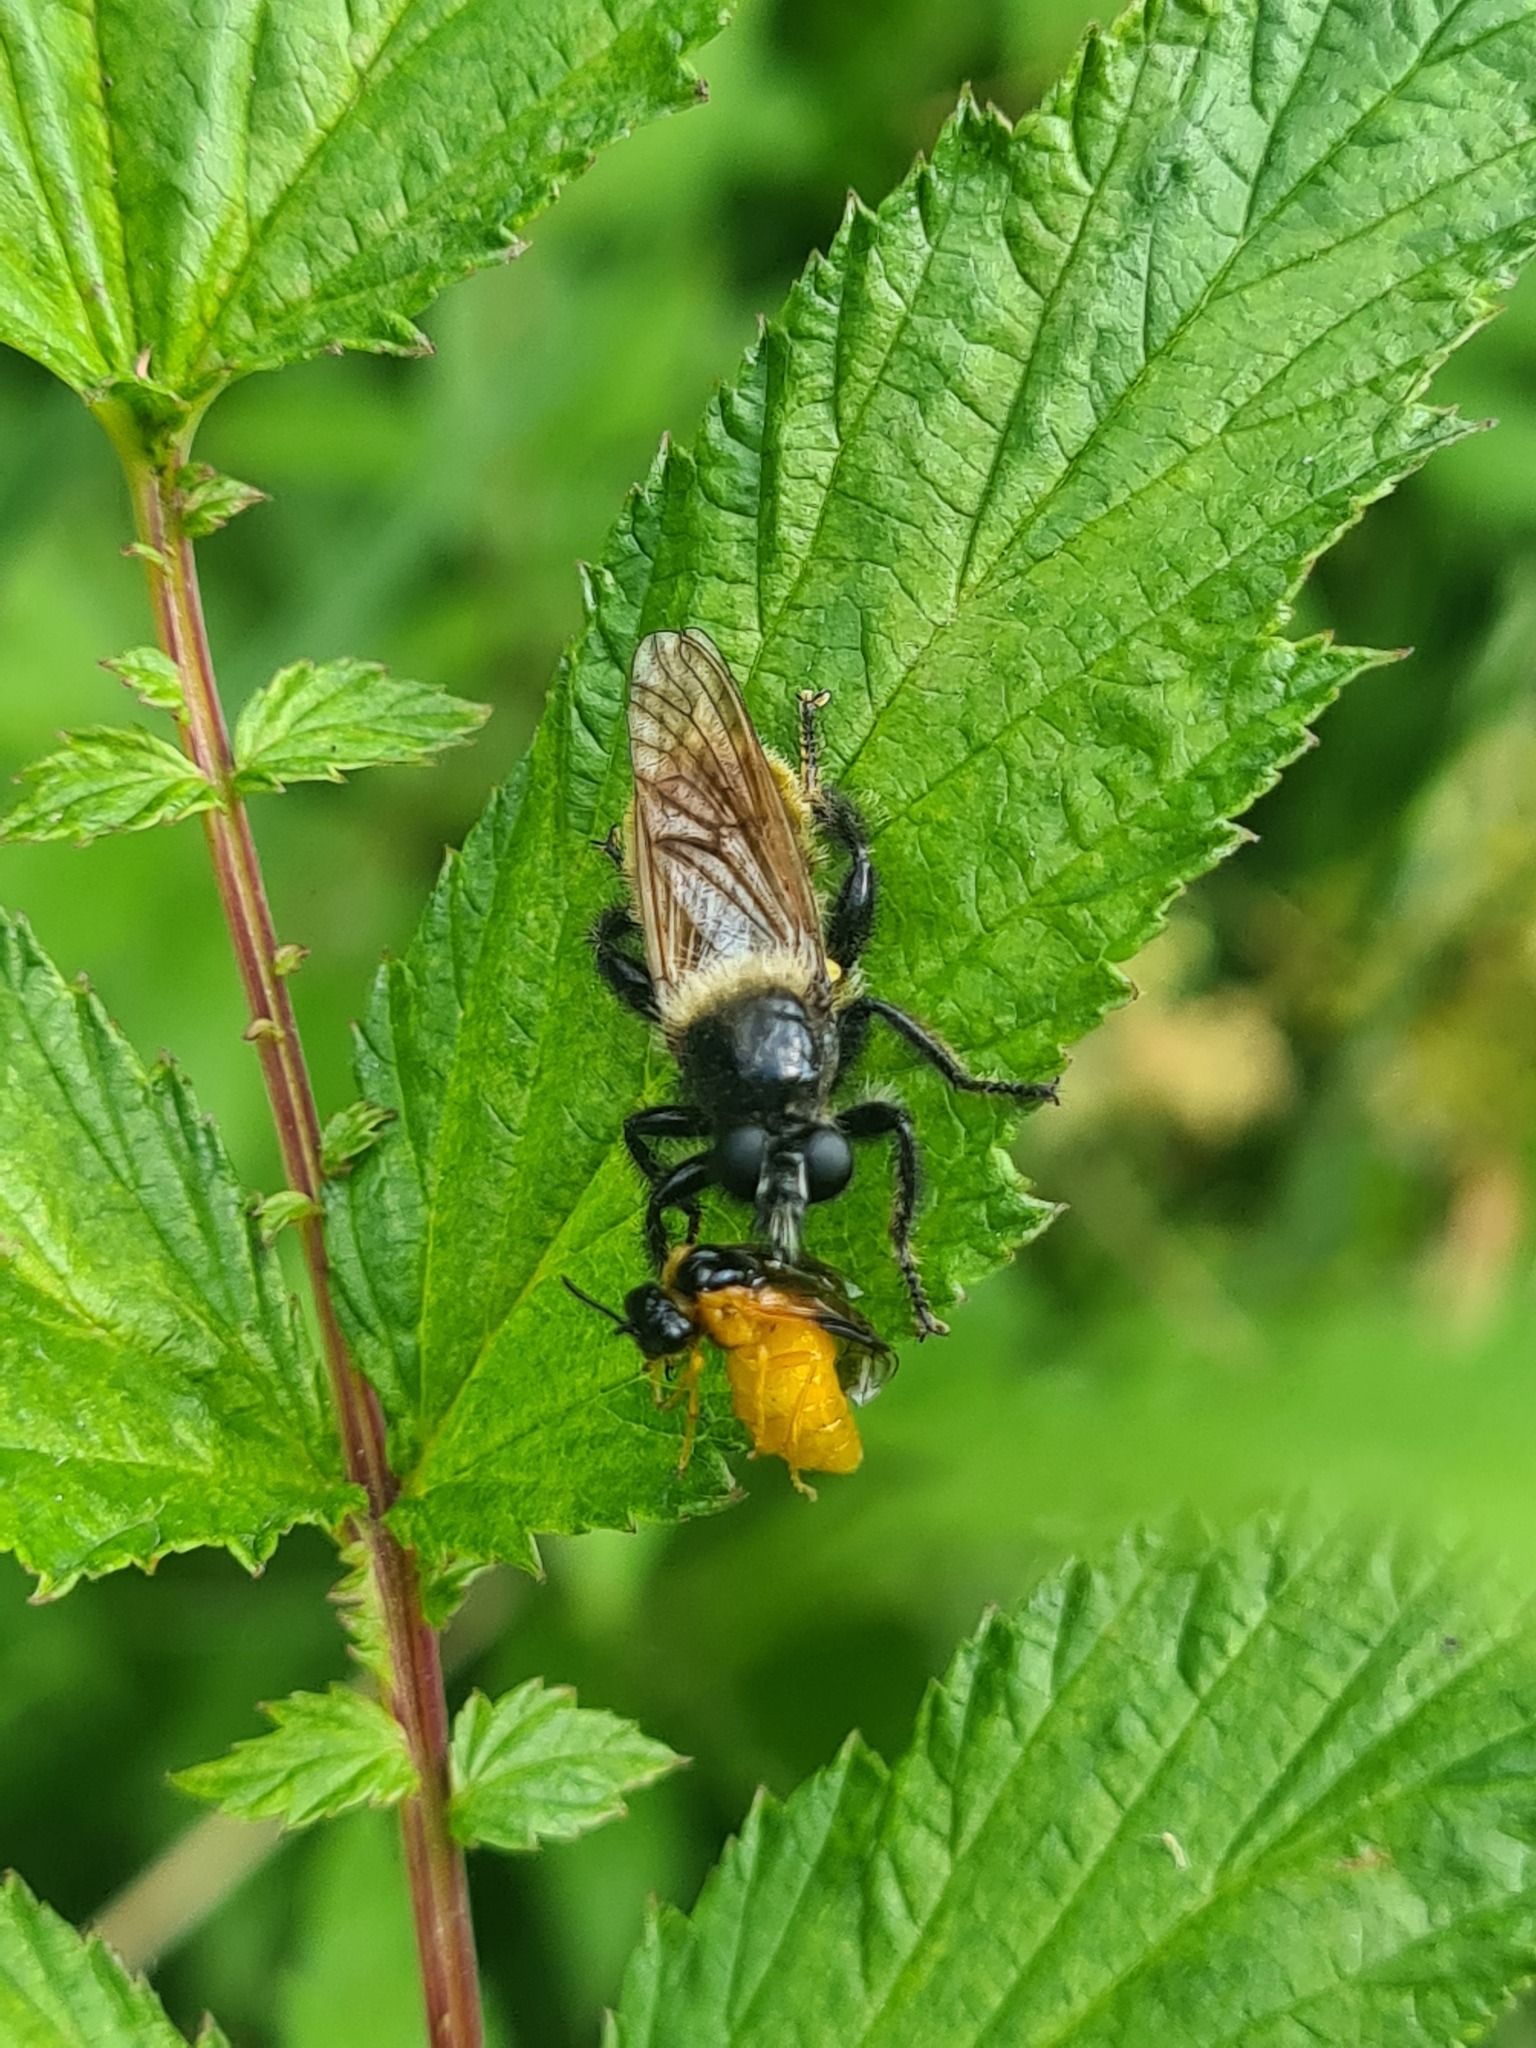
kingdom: Animalia
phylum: Arthropoda
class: Insecta
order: Hymenoptera
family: Tenthredinidae
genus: Selandria
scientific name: Selandria serva
